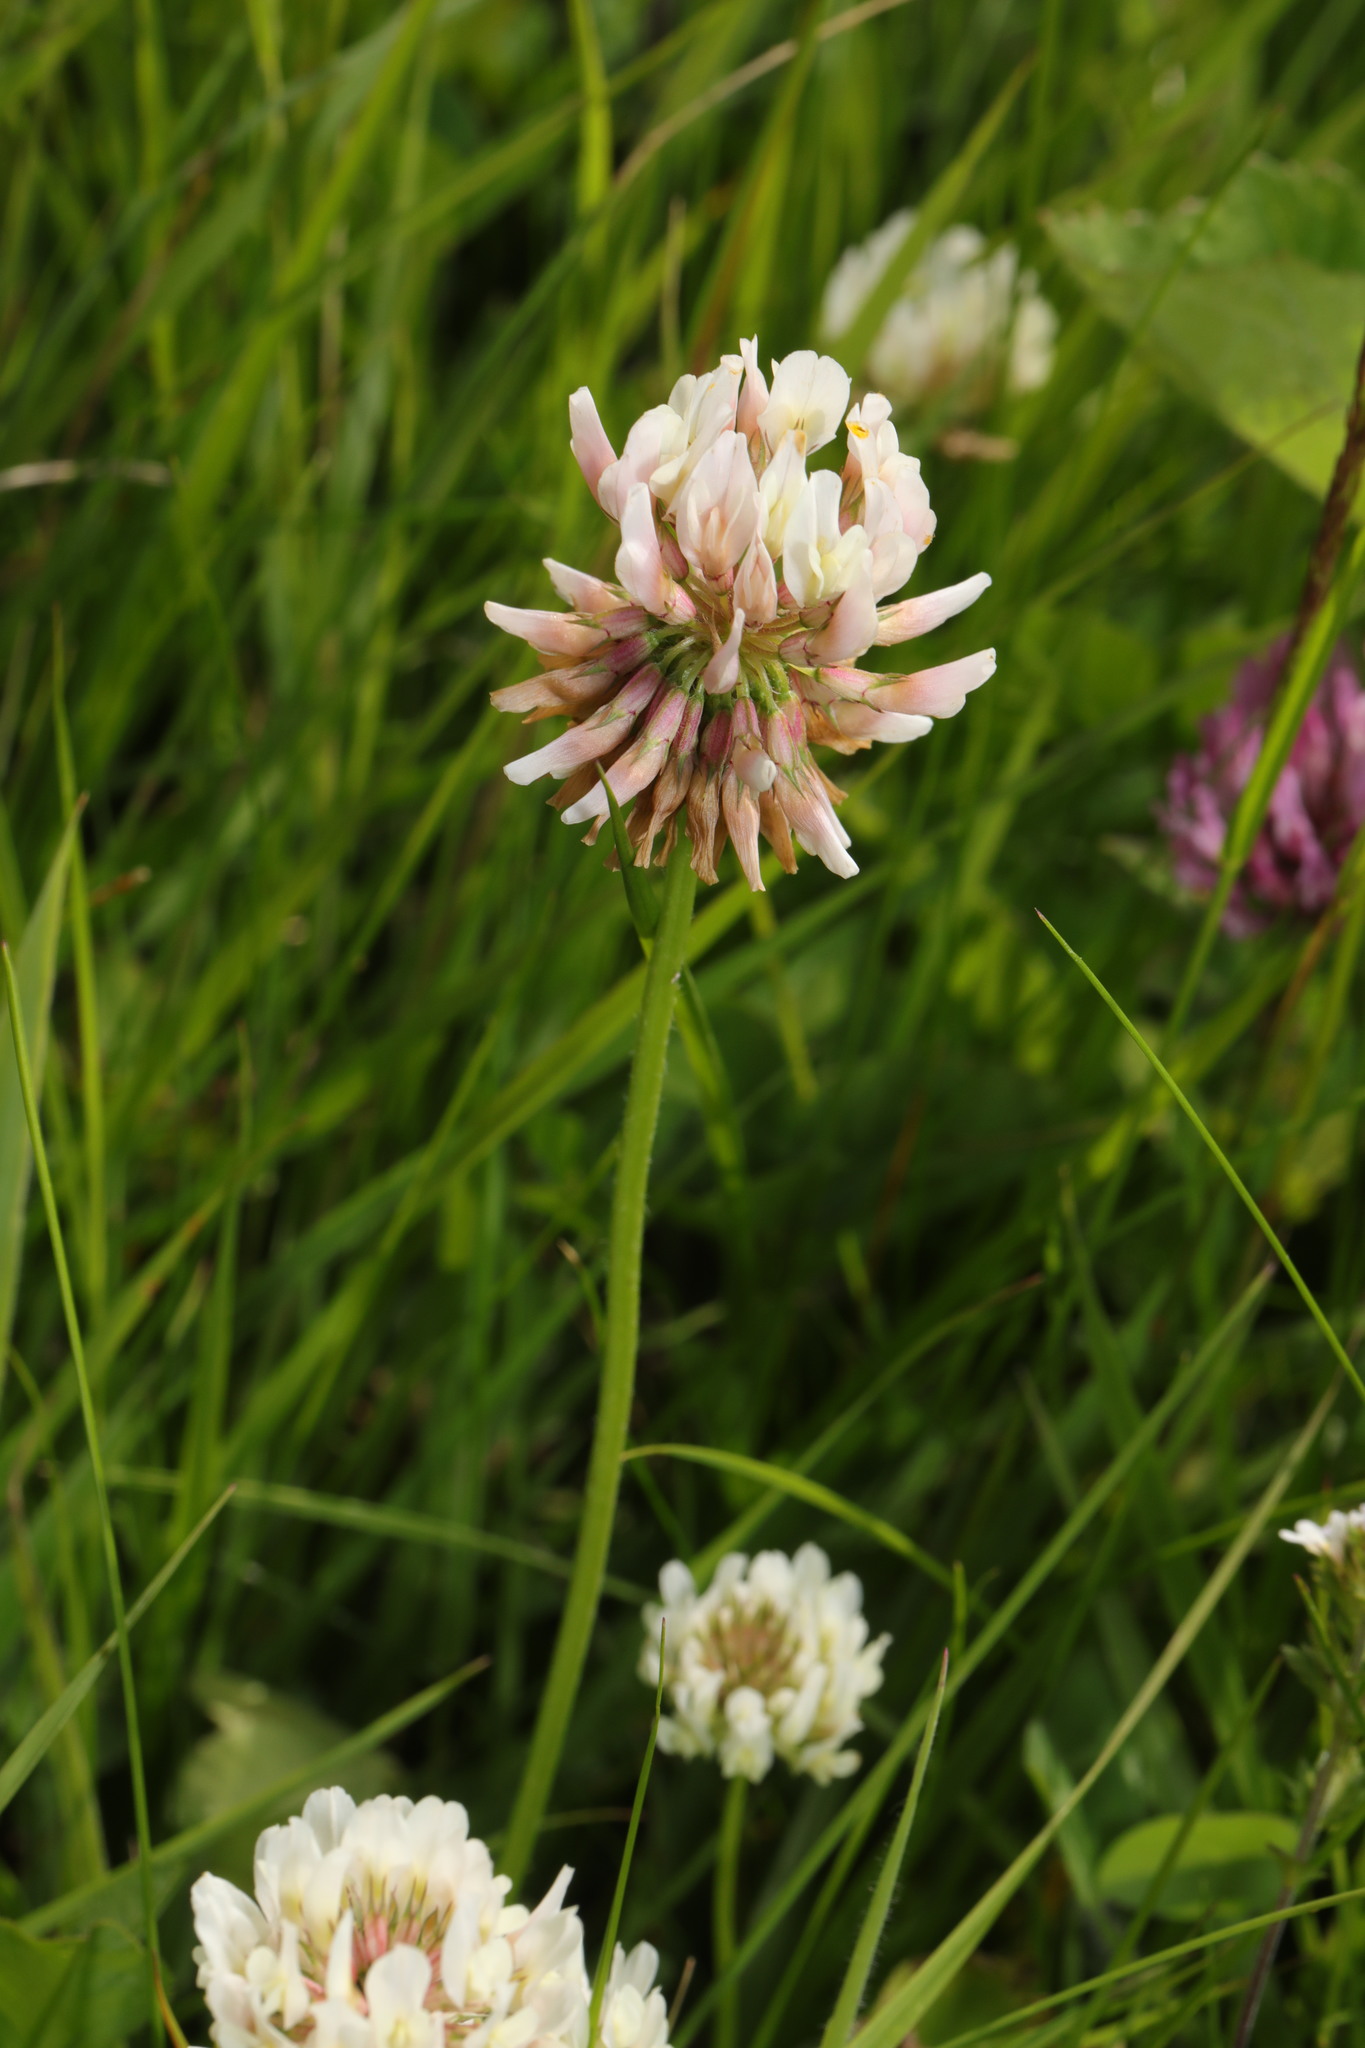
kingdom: Plantae
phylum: Tracheophyta
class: Magnoliopsida
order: Fabales
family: Fabaceae
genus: Trifolium
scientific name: Trifolium repens
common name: White clover
